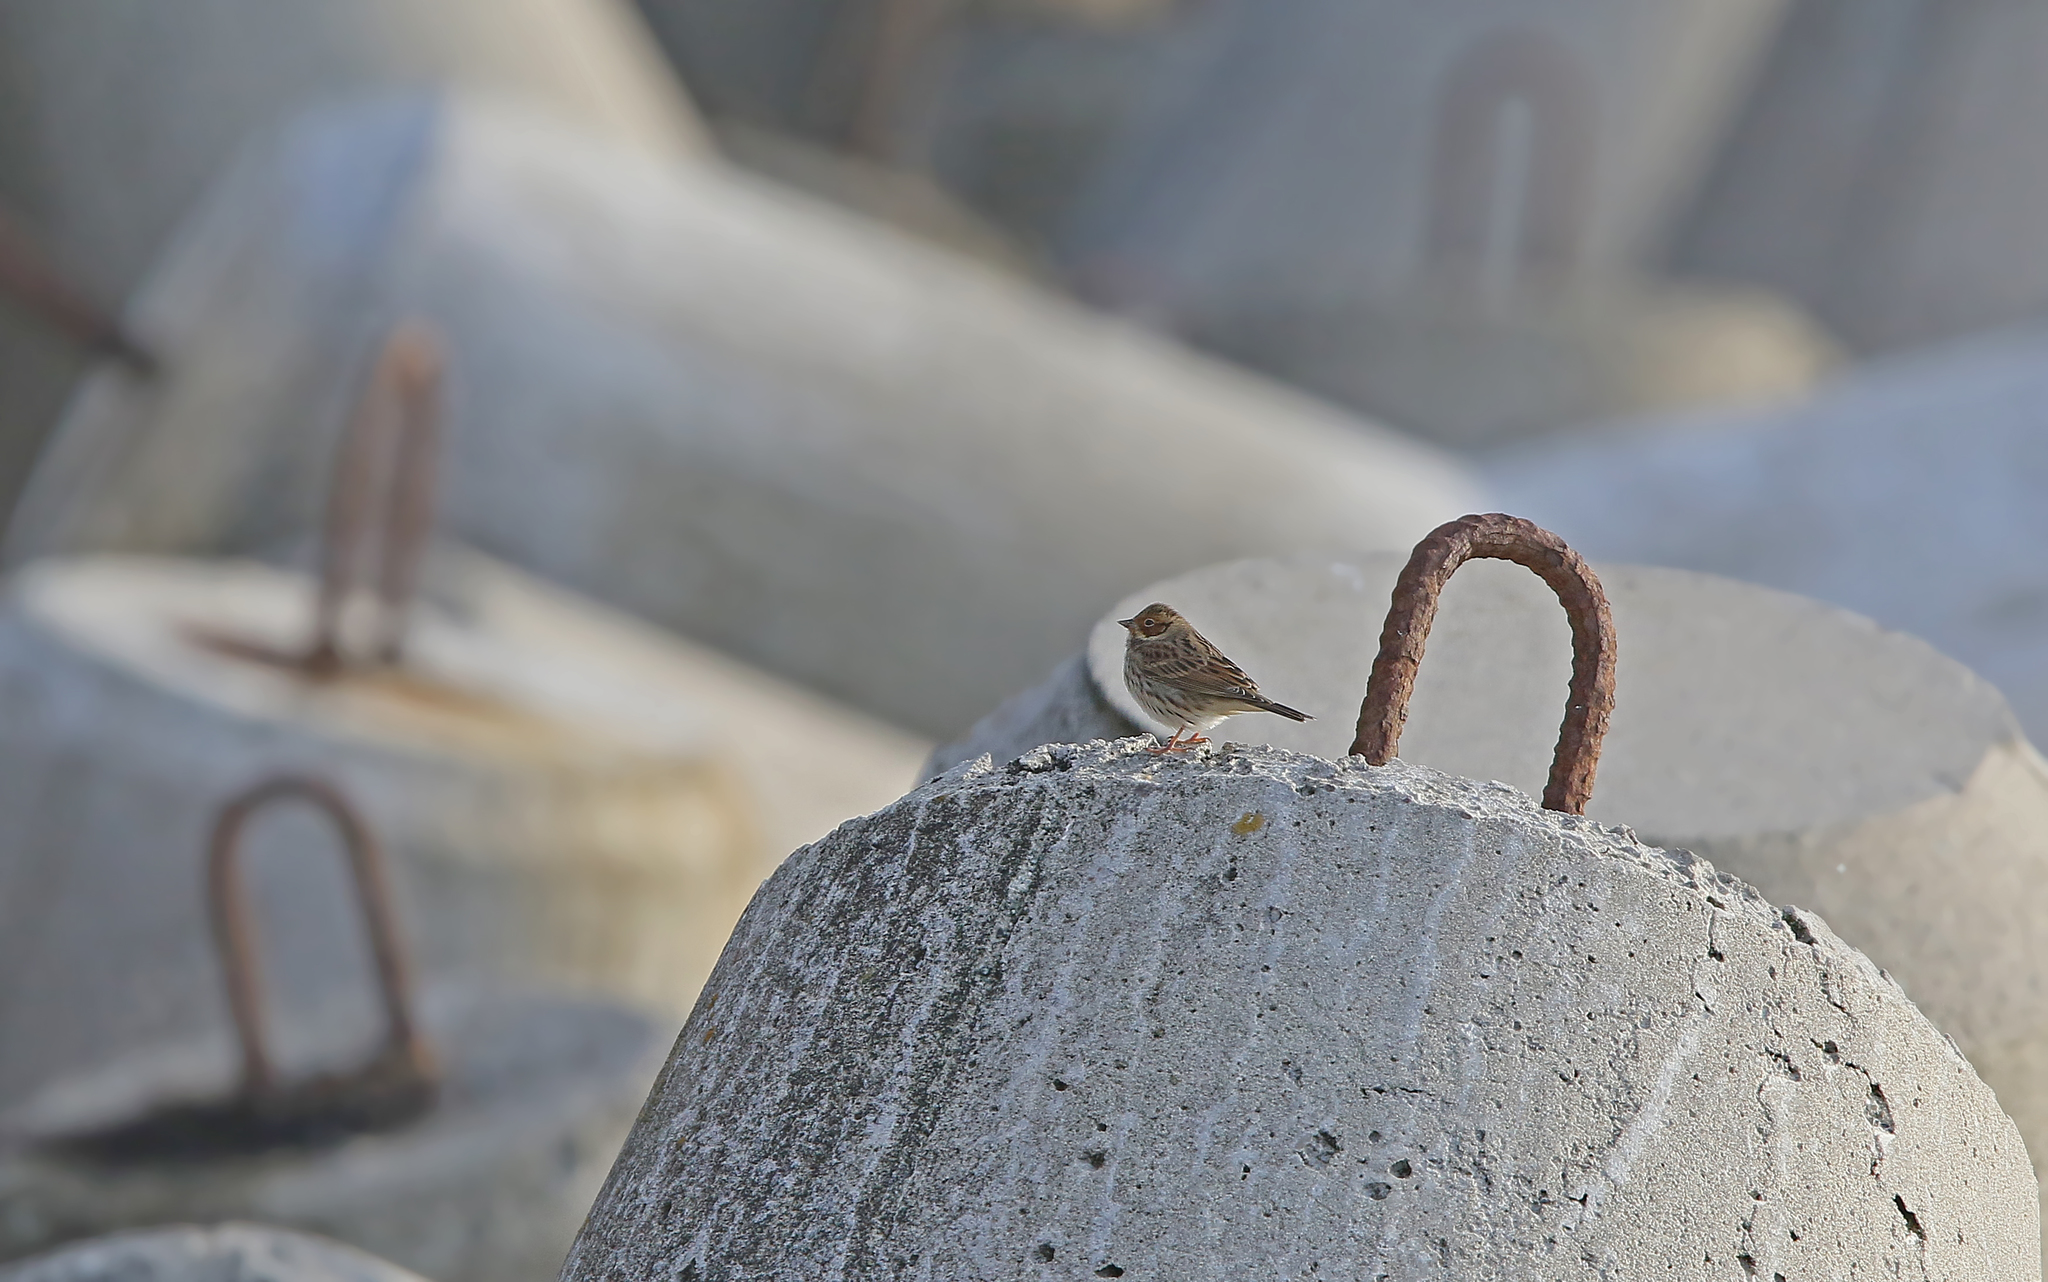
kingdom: Animalia
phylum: Chordata
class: Aves
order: Passeriformes
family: Emberizidae
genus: Emberiza
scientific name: Emberiza pusilla
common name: Little bunting
